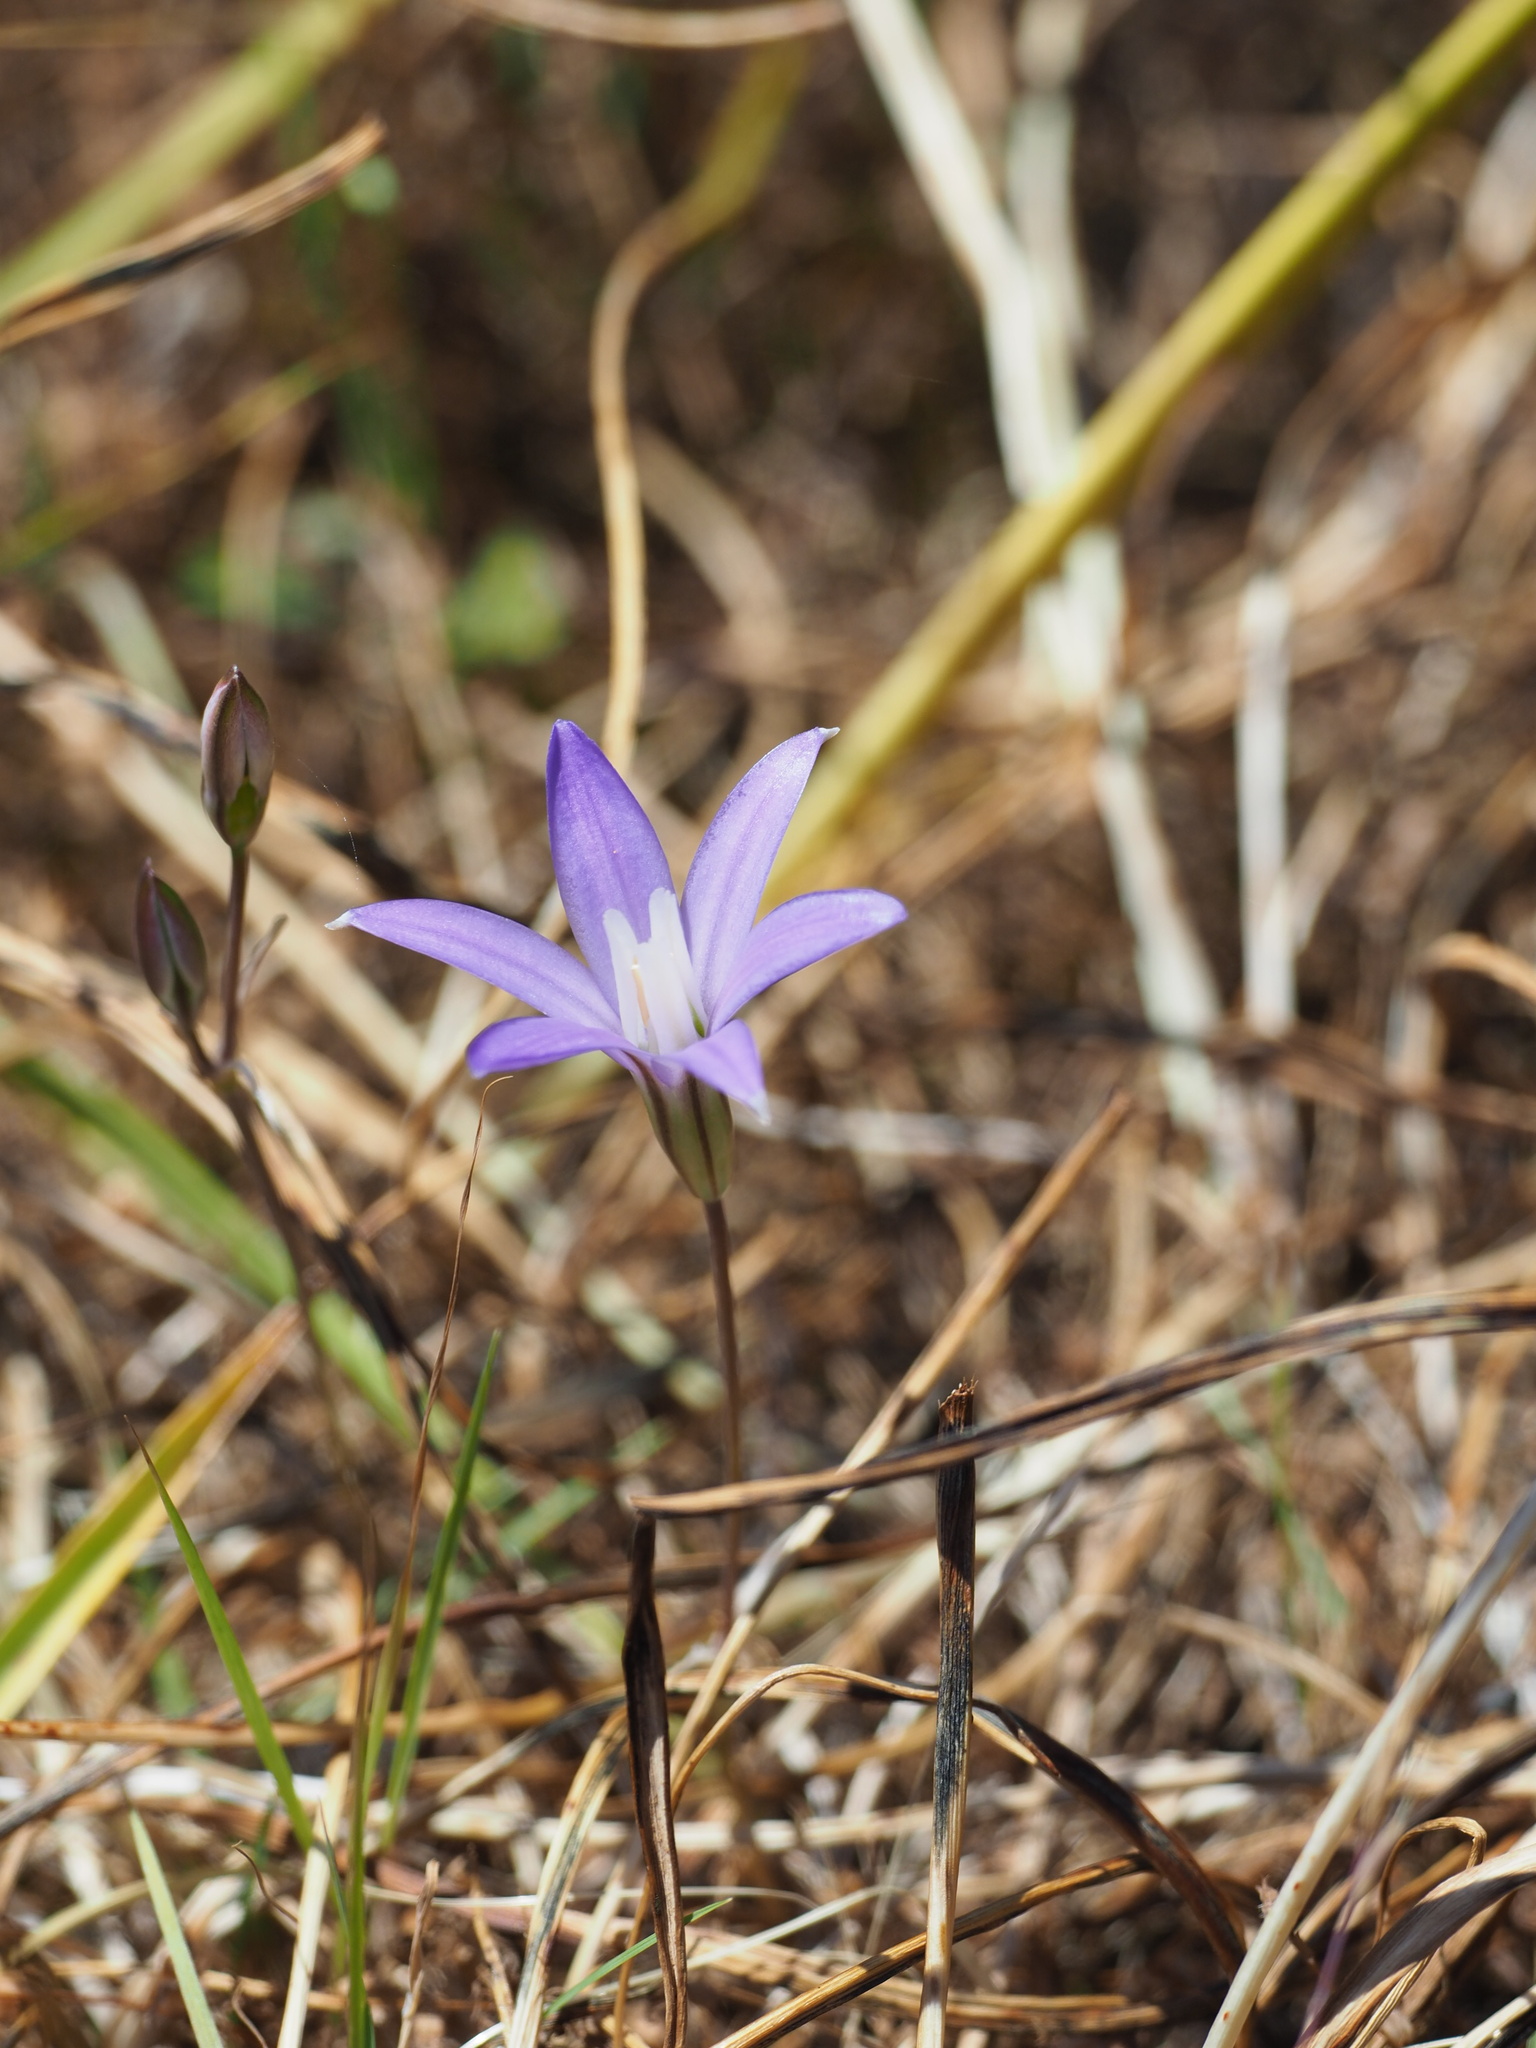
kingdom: Plantae
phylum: Tracheophyta
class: Liliopsida
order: Asparagales
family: Asparagaceae
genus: Brodiaea
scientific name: Brodiaea coronaria
